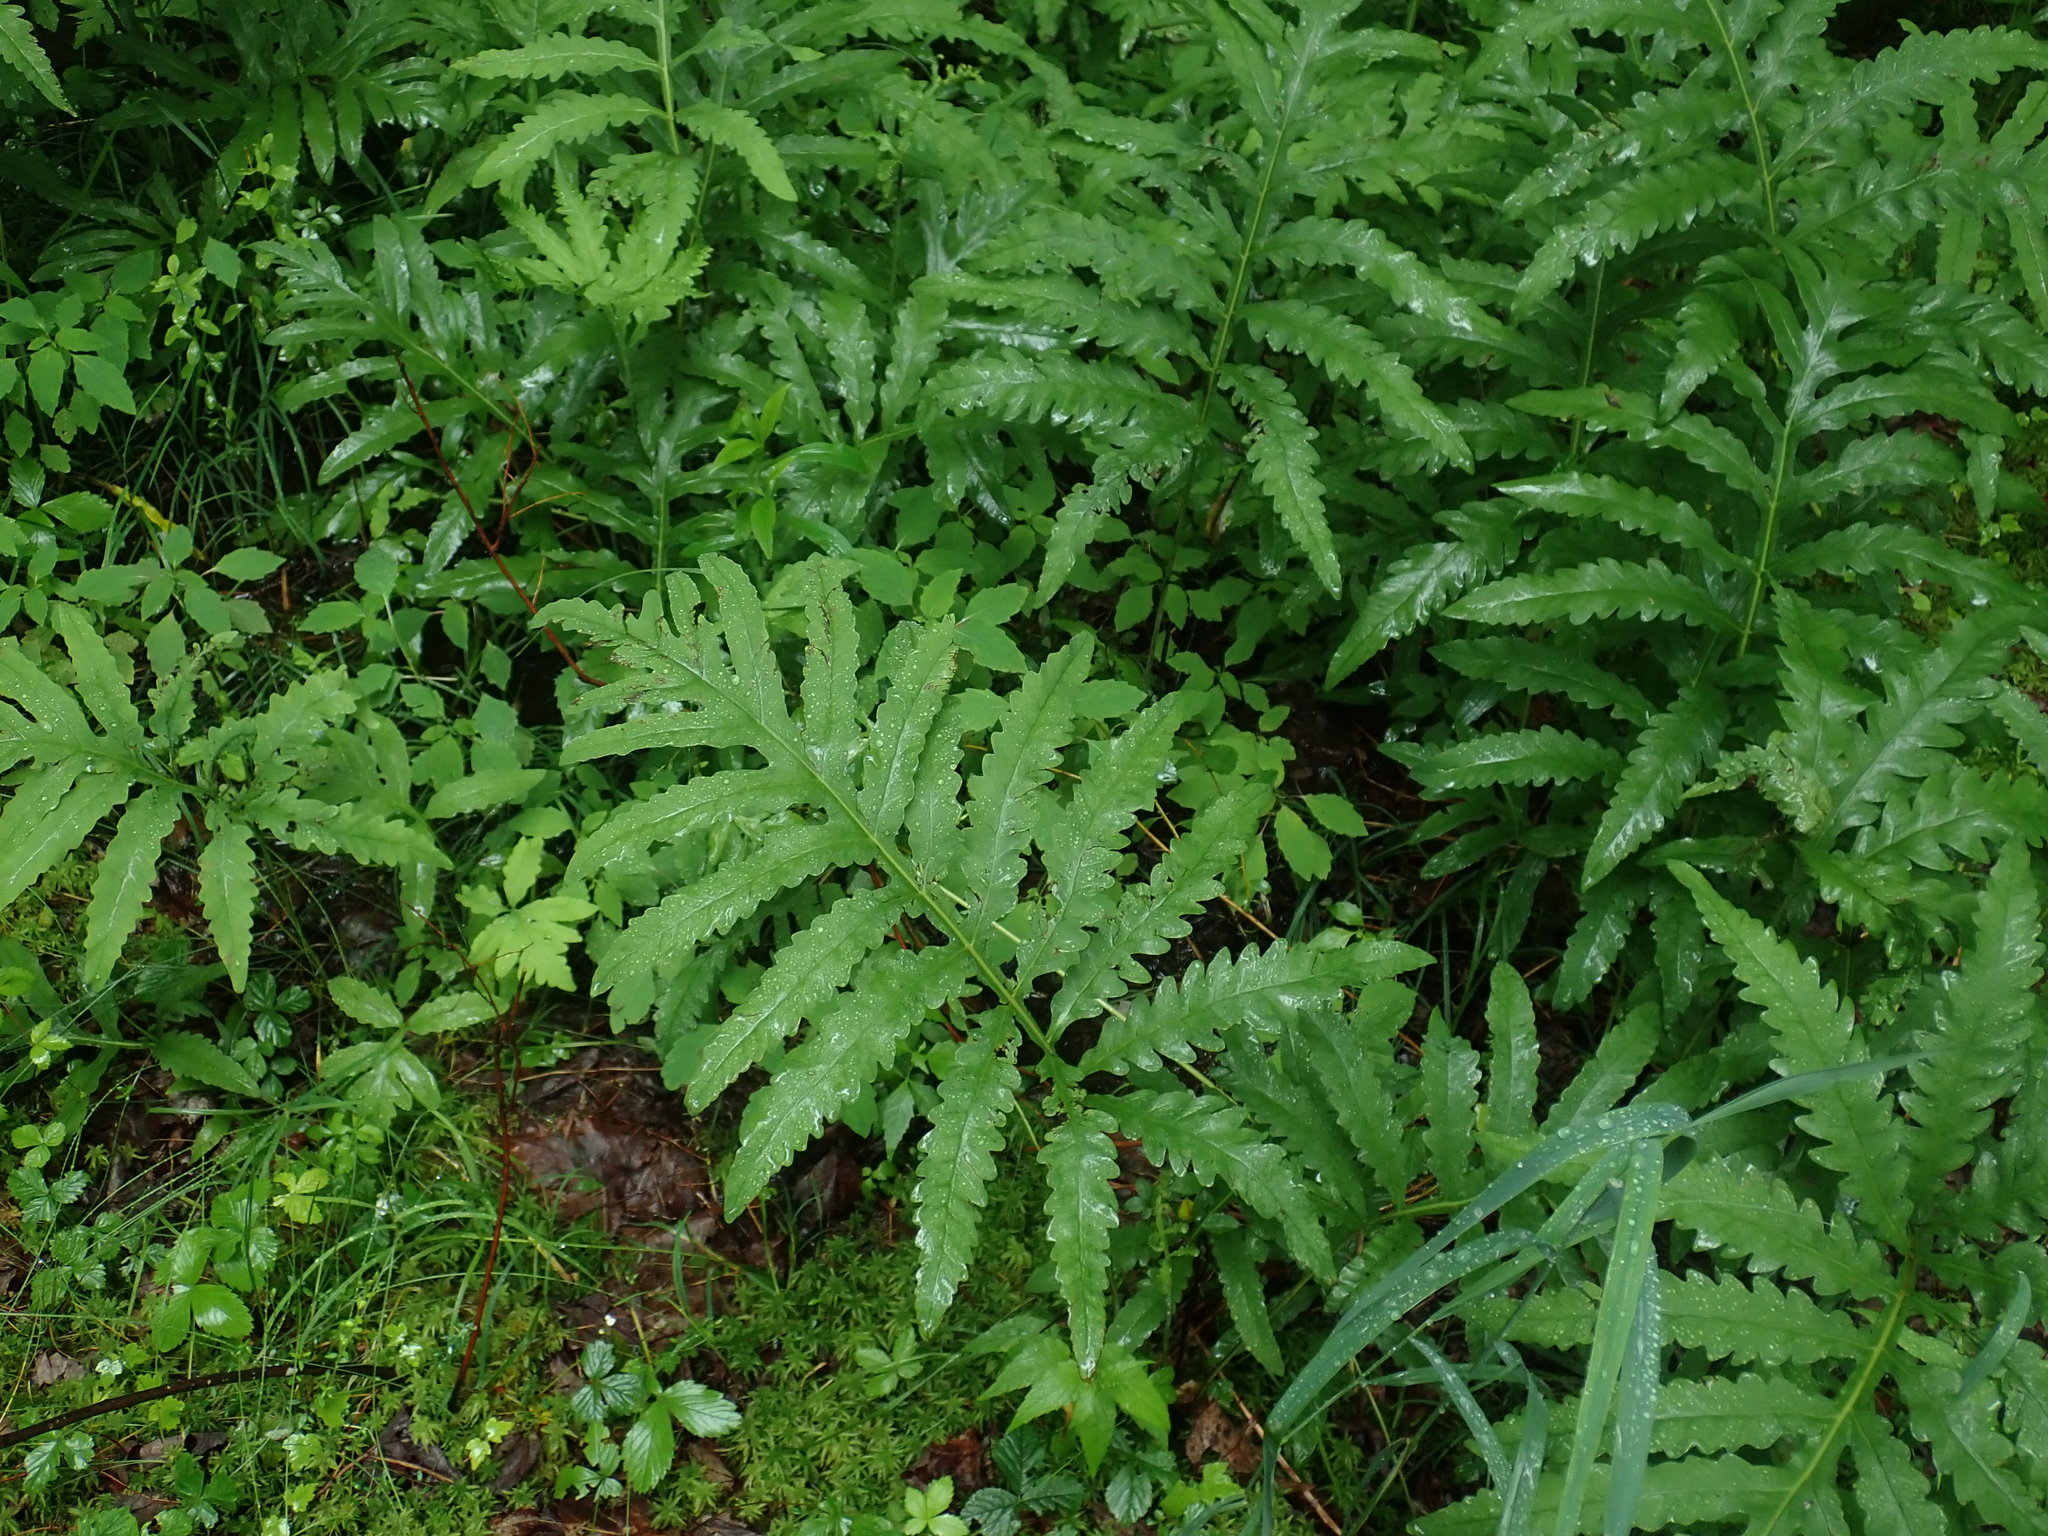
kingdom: Plantae
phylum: Tracheophyta
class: Polypodiopsida
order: Polypodiales
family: Onocleaceae
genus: Onoclea
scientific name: Onoclea sensibilis
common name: Sensitive fern
